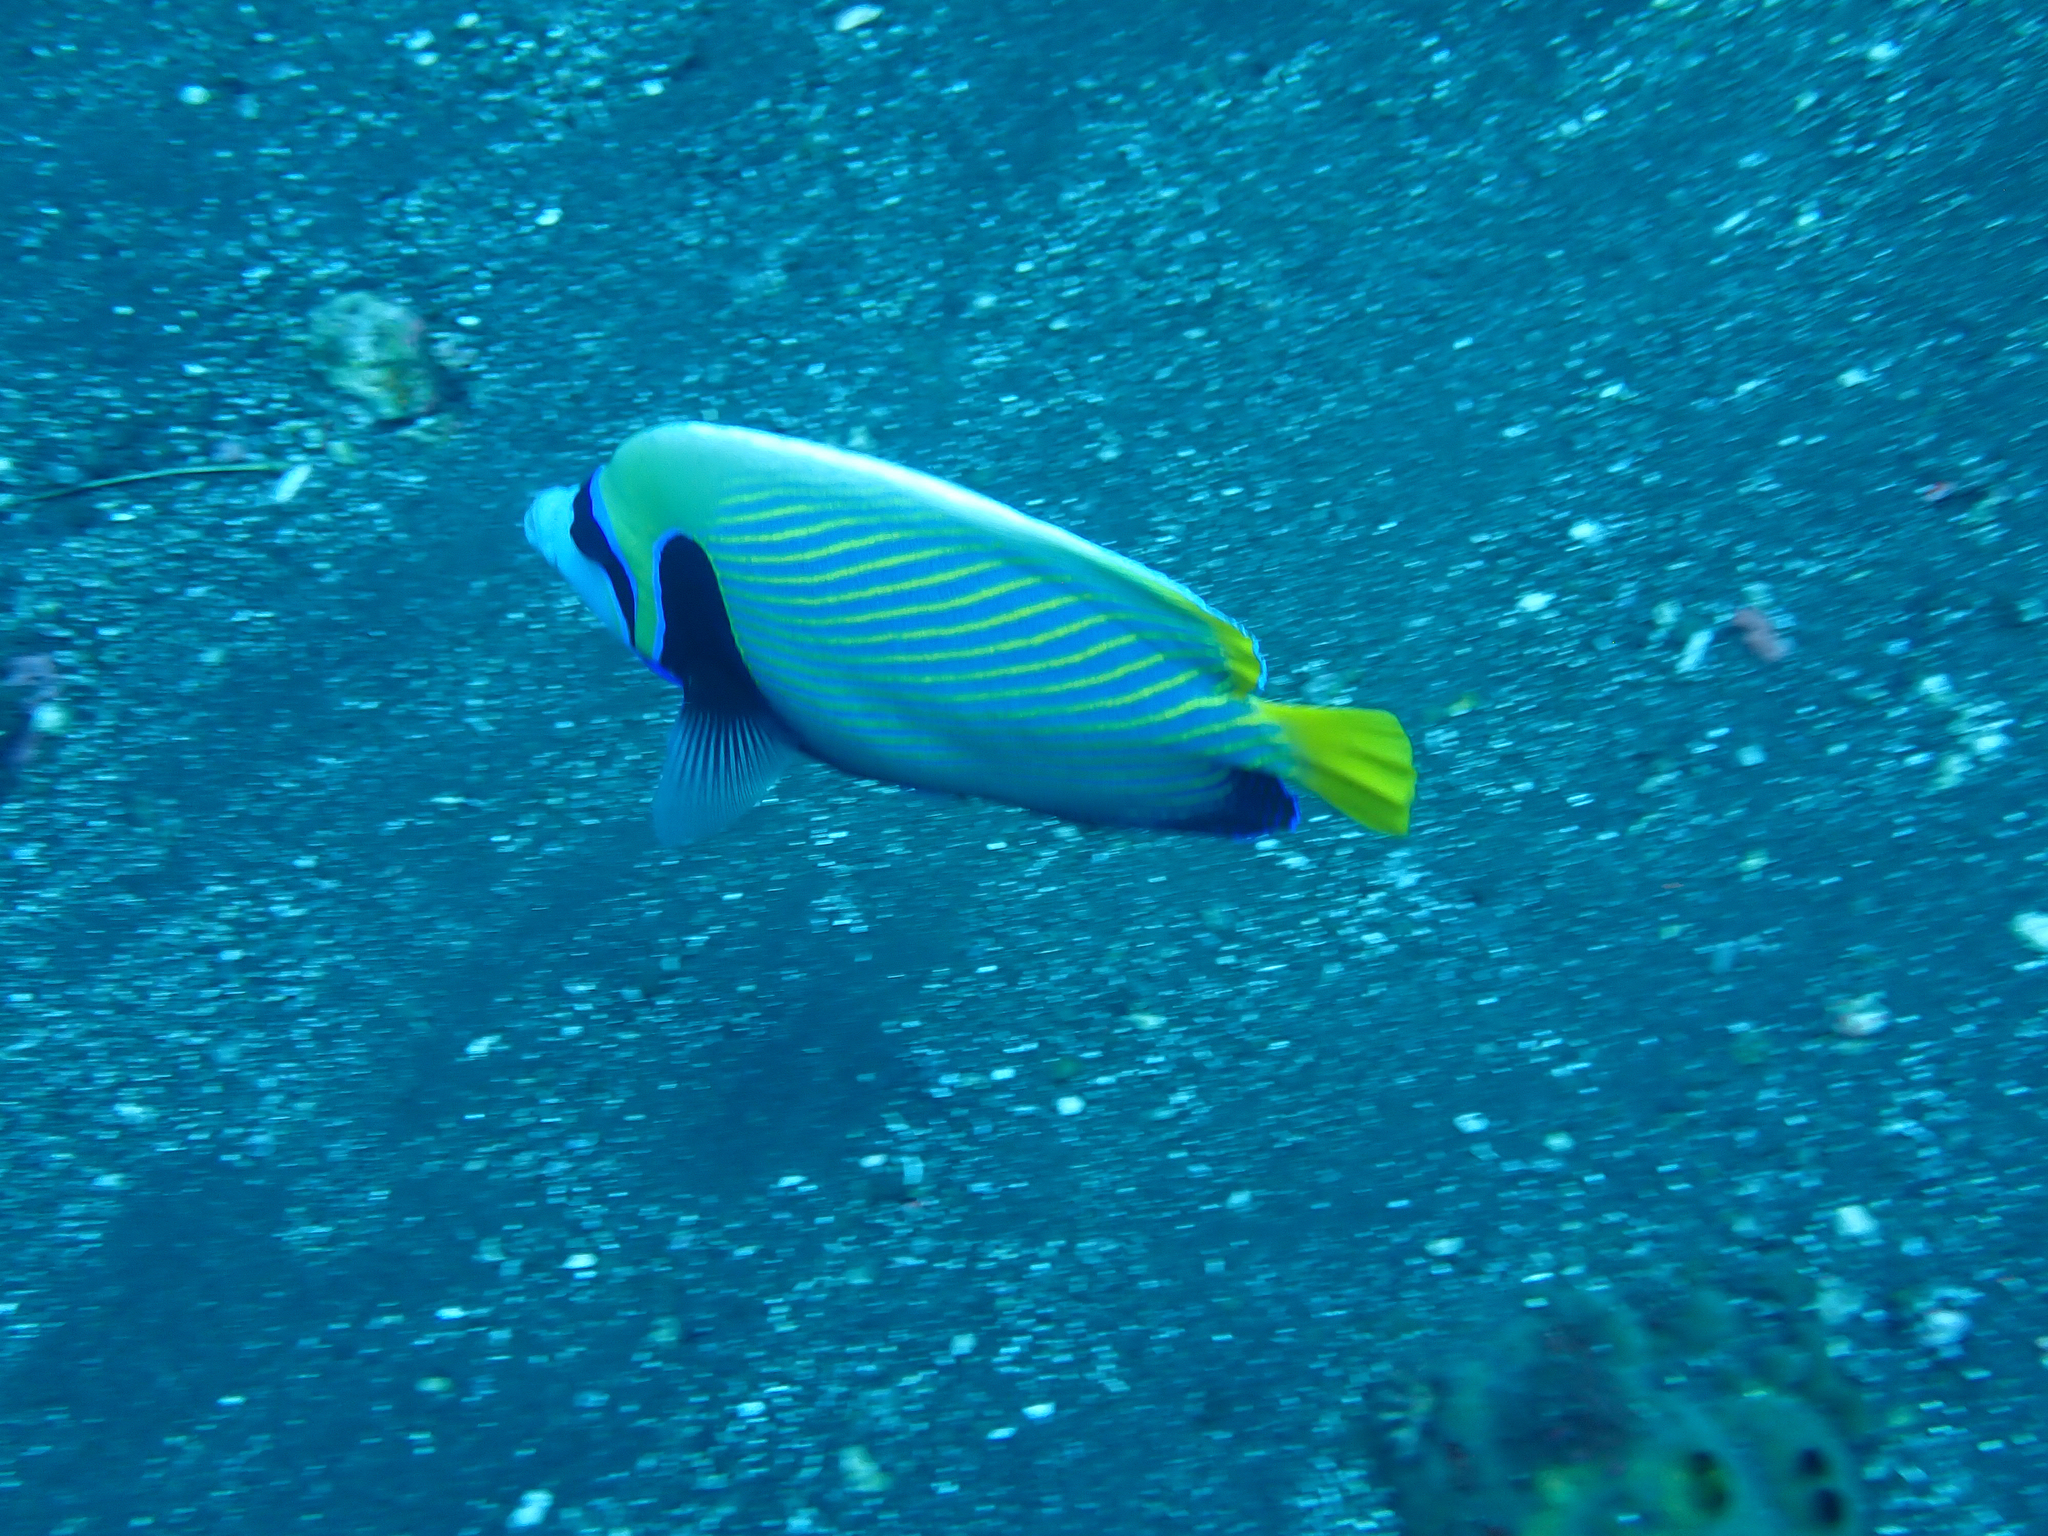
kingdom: Animalia
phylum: Chordata
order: Perciformes
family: Pomacanthidae
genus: Pomacanthus
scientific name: Pomacanthus imperator
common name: Emperor angelfish
